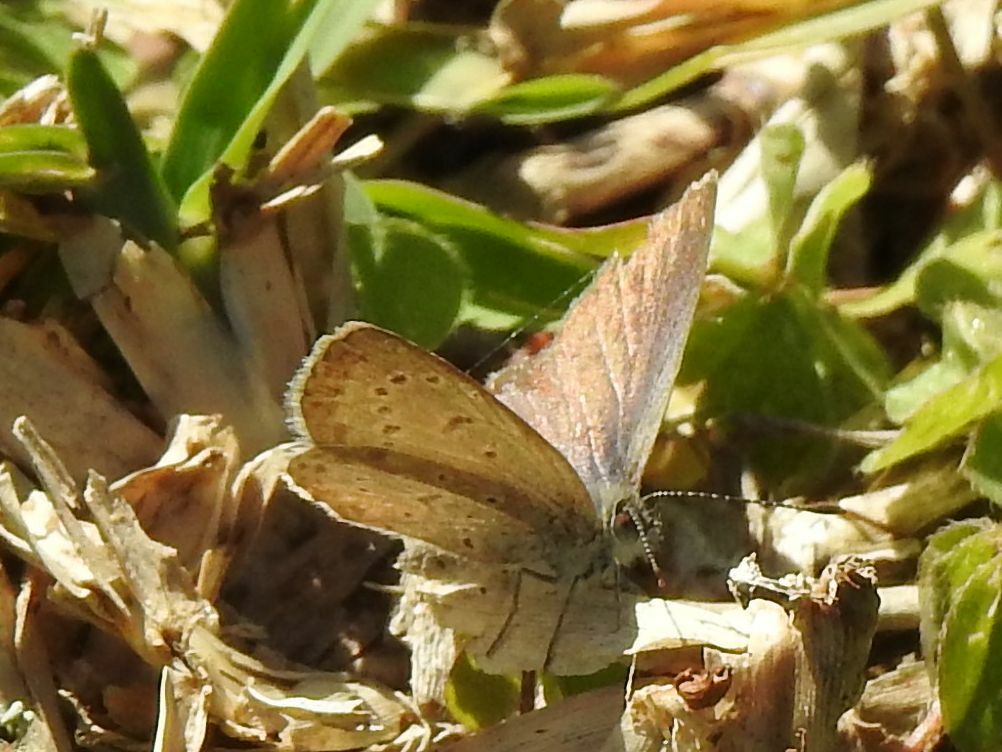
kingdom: Animalia
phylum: Arthropoda
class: Insecta
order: Lepidoptera
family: Lycaenidae
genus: Zizeeria
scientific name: Zizeeria knysna
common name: African grass blue
